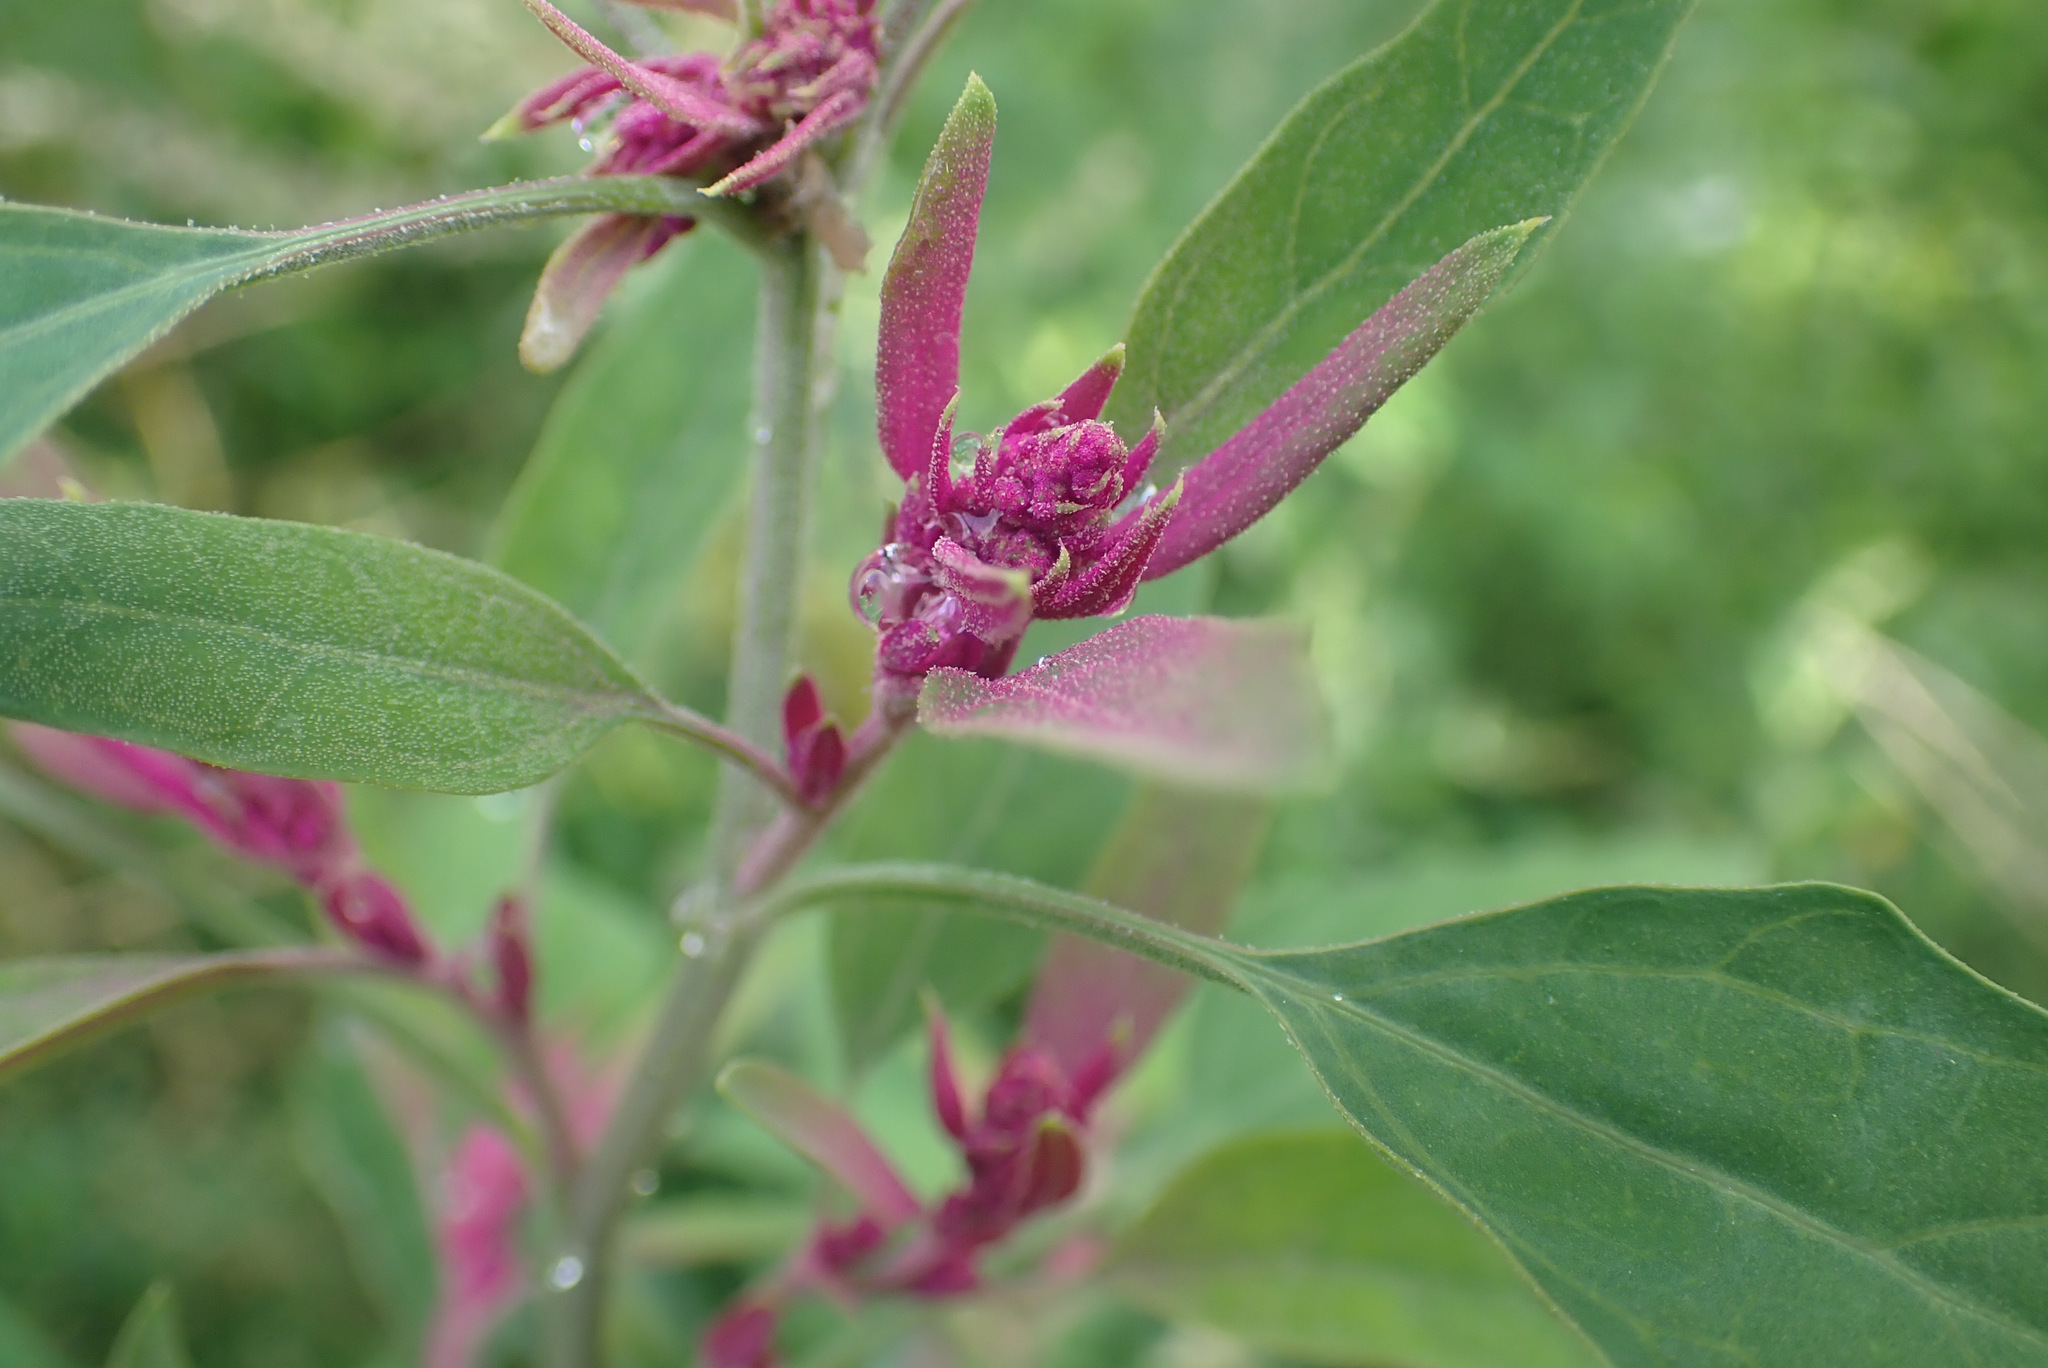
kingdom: Plantae
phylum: Tracheophyta
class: Magnoliopsida
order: Caryophyllales
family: Amaranthaceae
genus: Chenopodium
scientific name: Chenopodium reynieri
